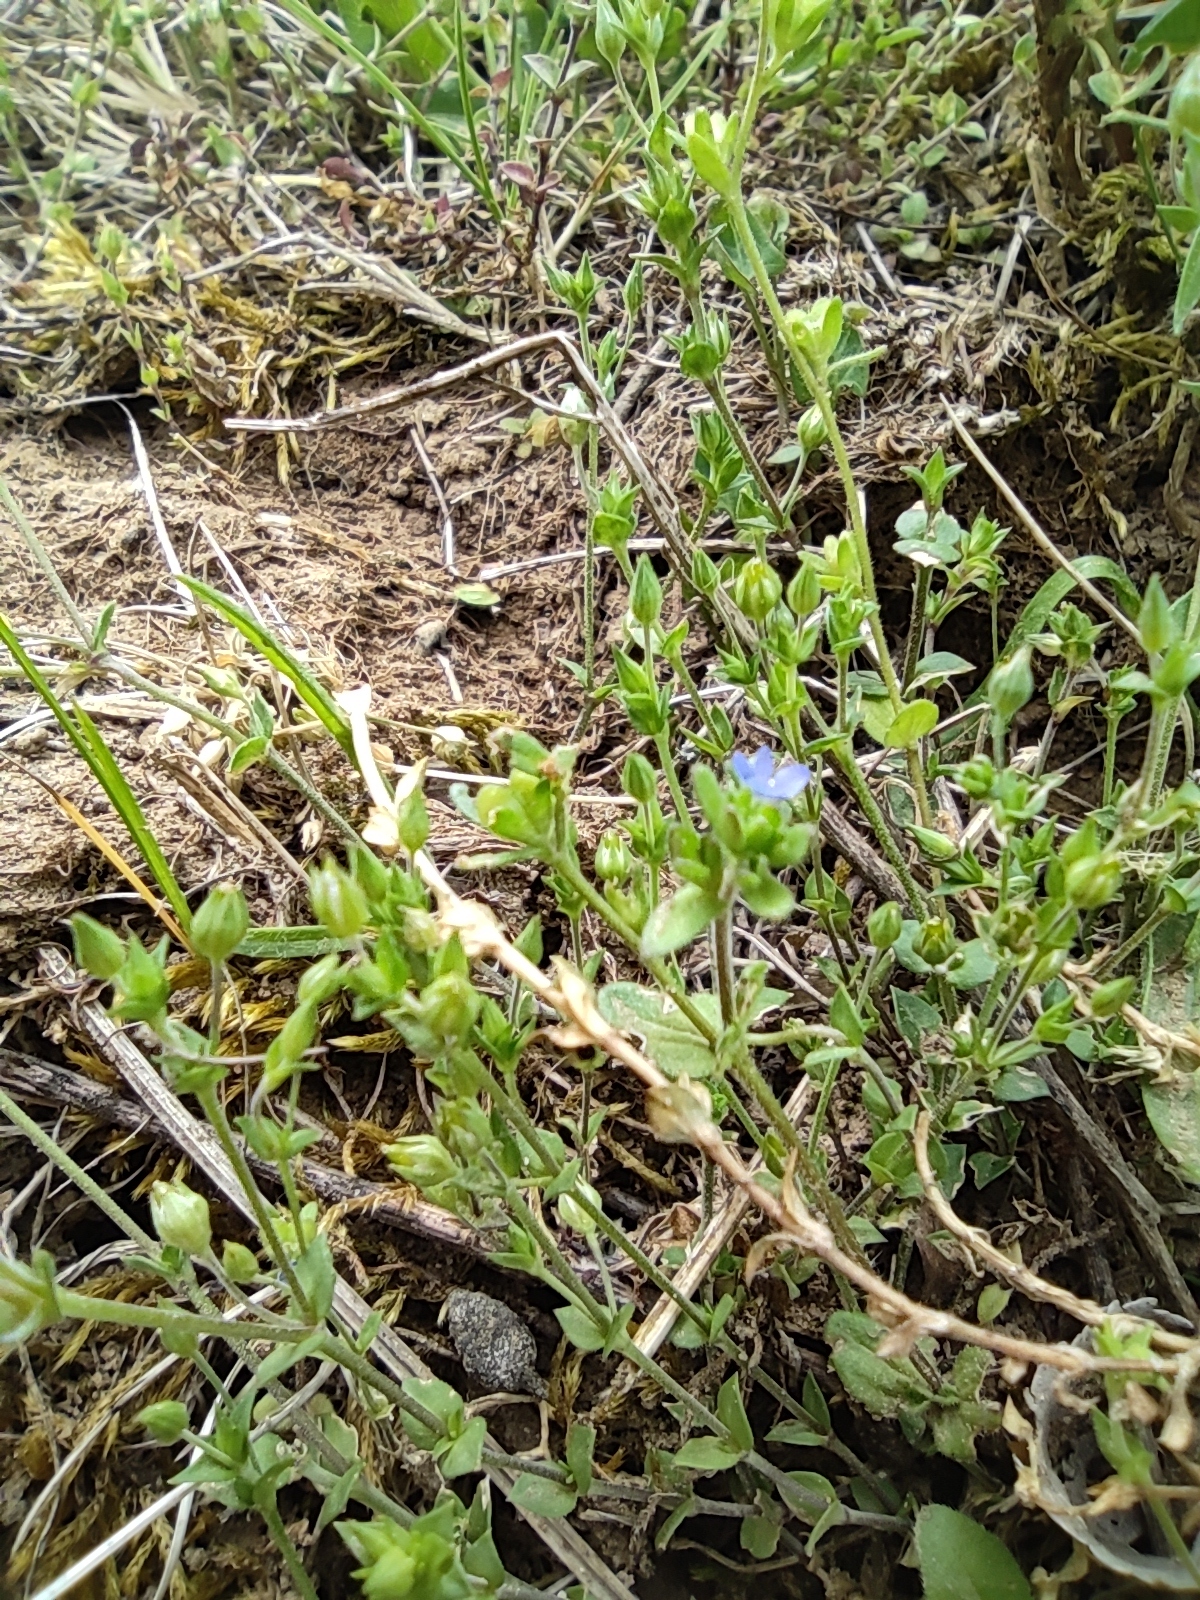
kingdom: Plantae
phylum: Tracheophyta
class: Magnoliopsida
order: Lamiales
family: Plantaginaceae
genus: Veronica
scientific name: Veronica arvensis
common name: Corn speedwell
